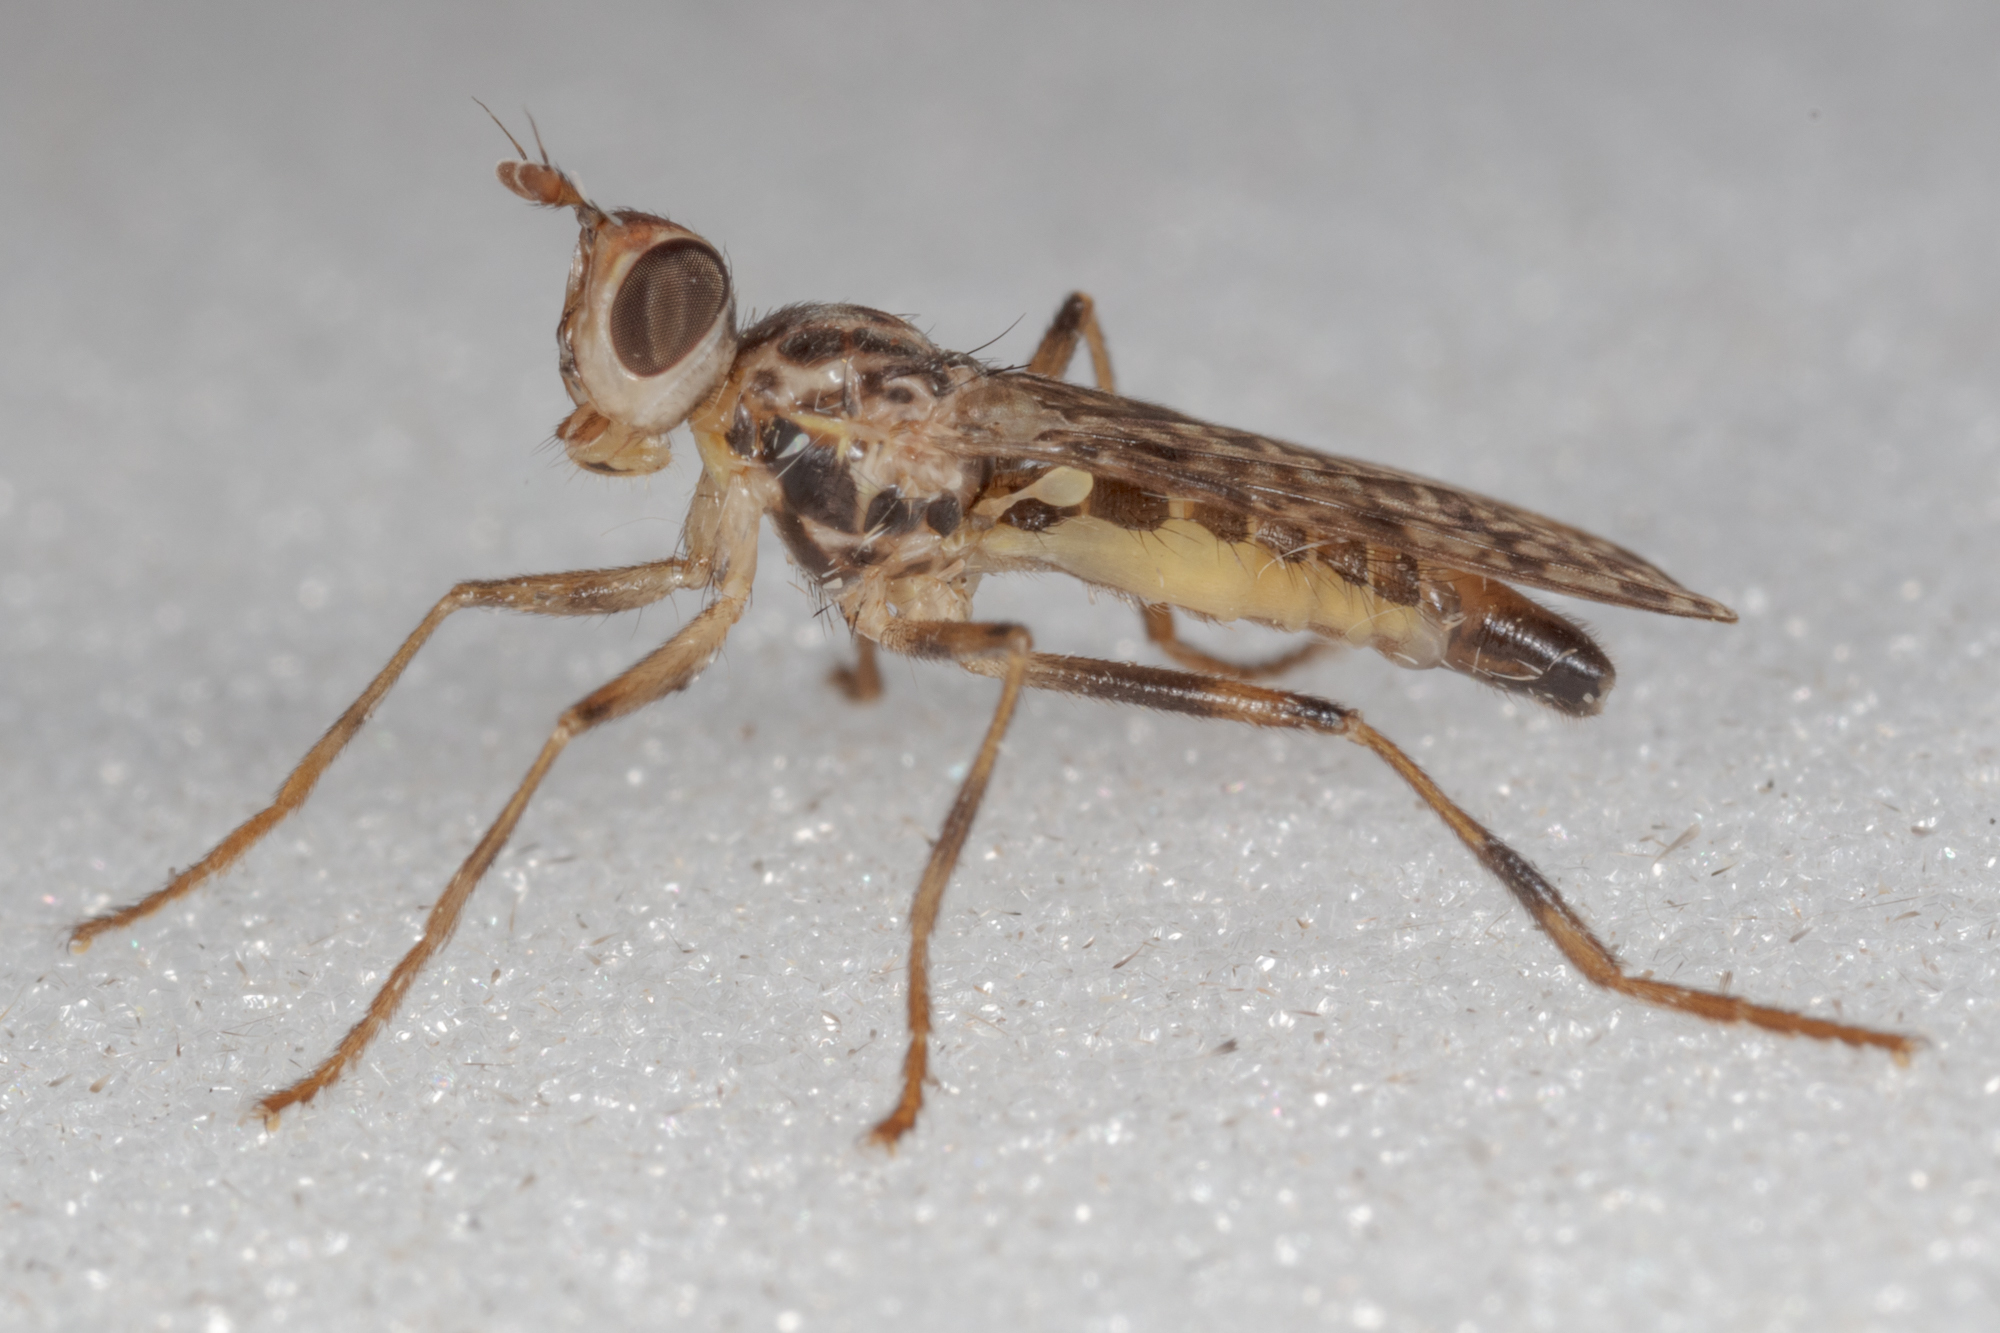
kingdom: Animalia
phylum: Arthropoda
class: Insecta
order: Diptera
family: Pyrgotidae
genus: Boreothrinax
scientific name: Boreothrinax
